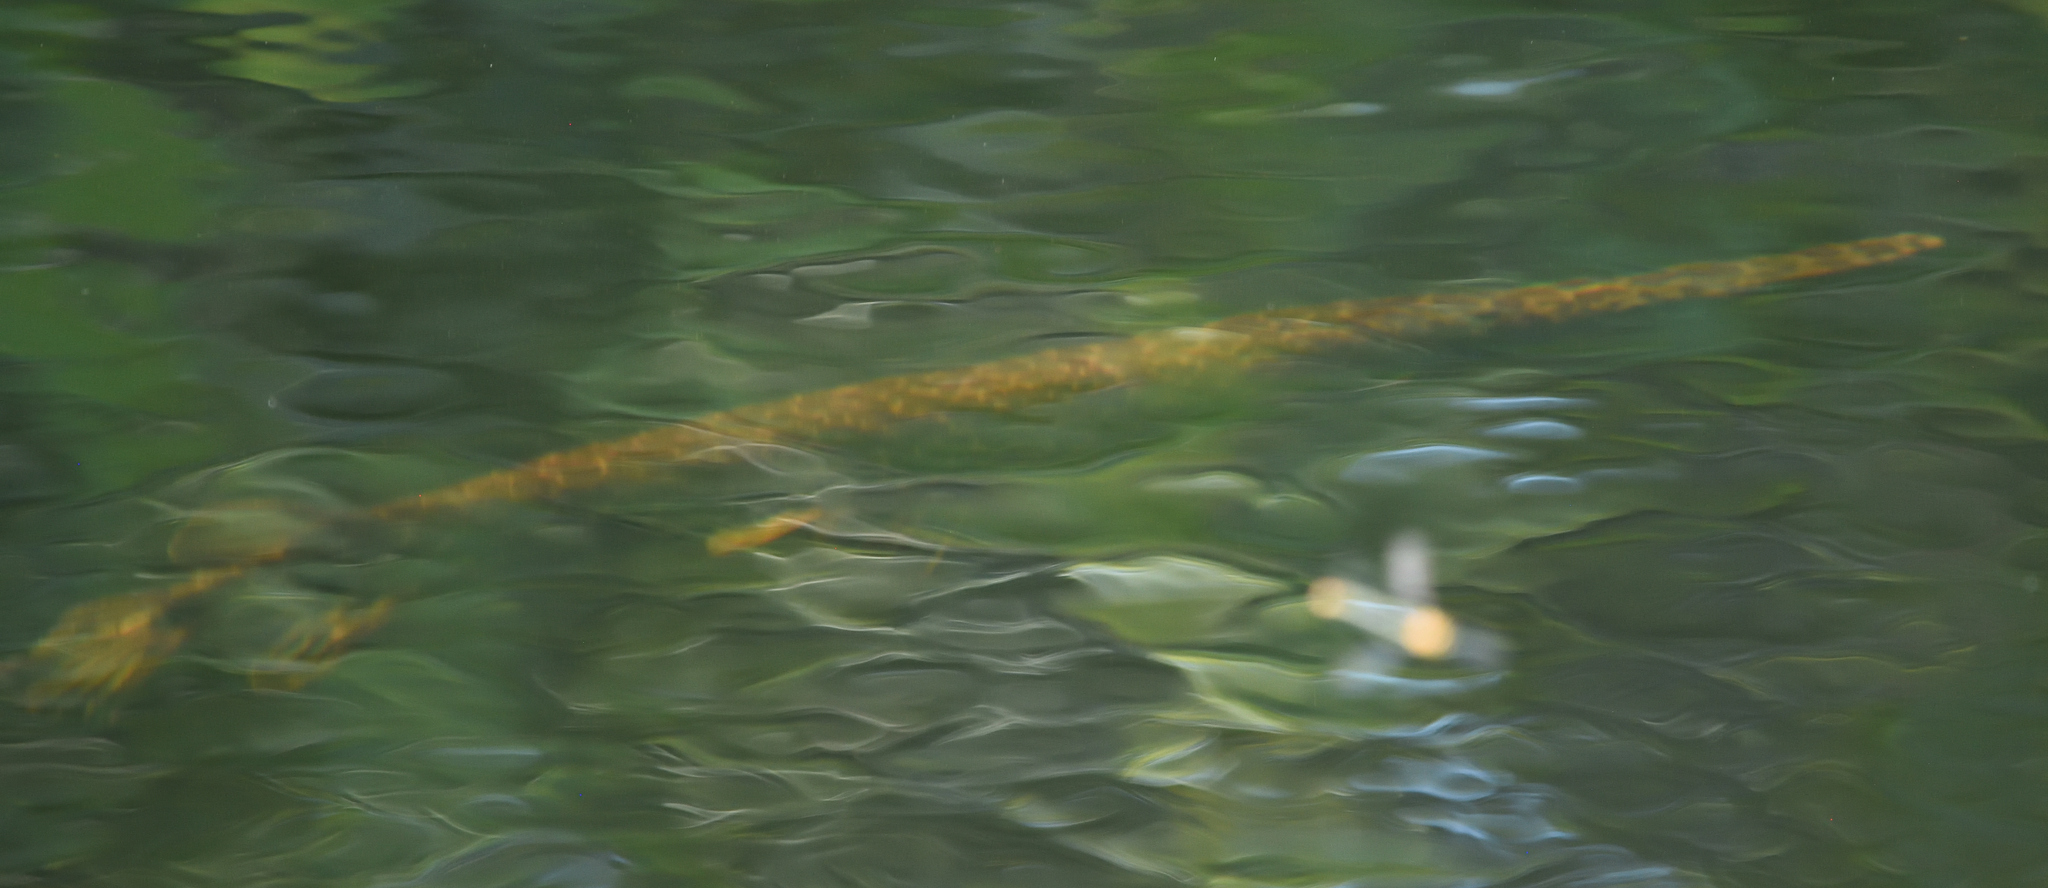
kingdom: Animalia
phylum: Chordata
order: Lepisosteiformes
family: Lepisosteidae
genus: Lepisosteus
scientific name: Lepisosteus platyrhincus
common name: Florida gar
